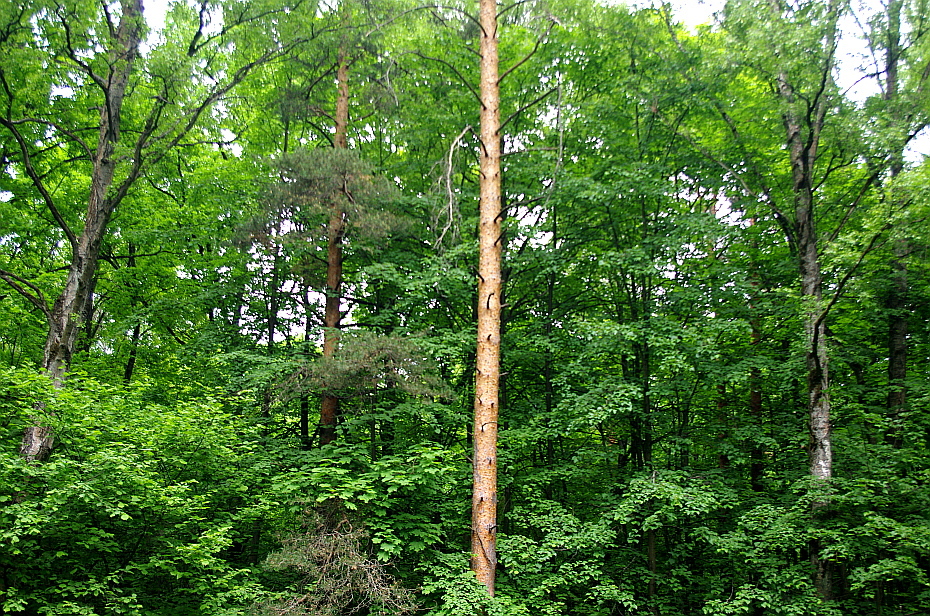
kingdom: Plantae
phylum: Tracheophyta
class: Pinopsida
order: Pinales
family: Pinaceae
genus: Pinus
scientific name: Pinus sylvestris
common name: Scots pine
